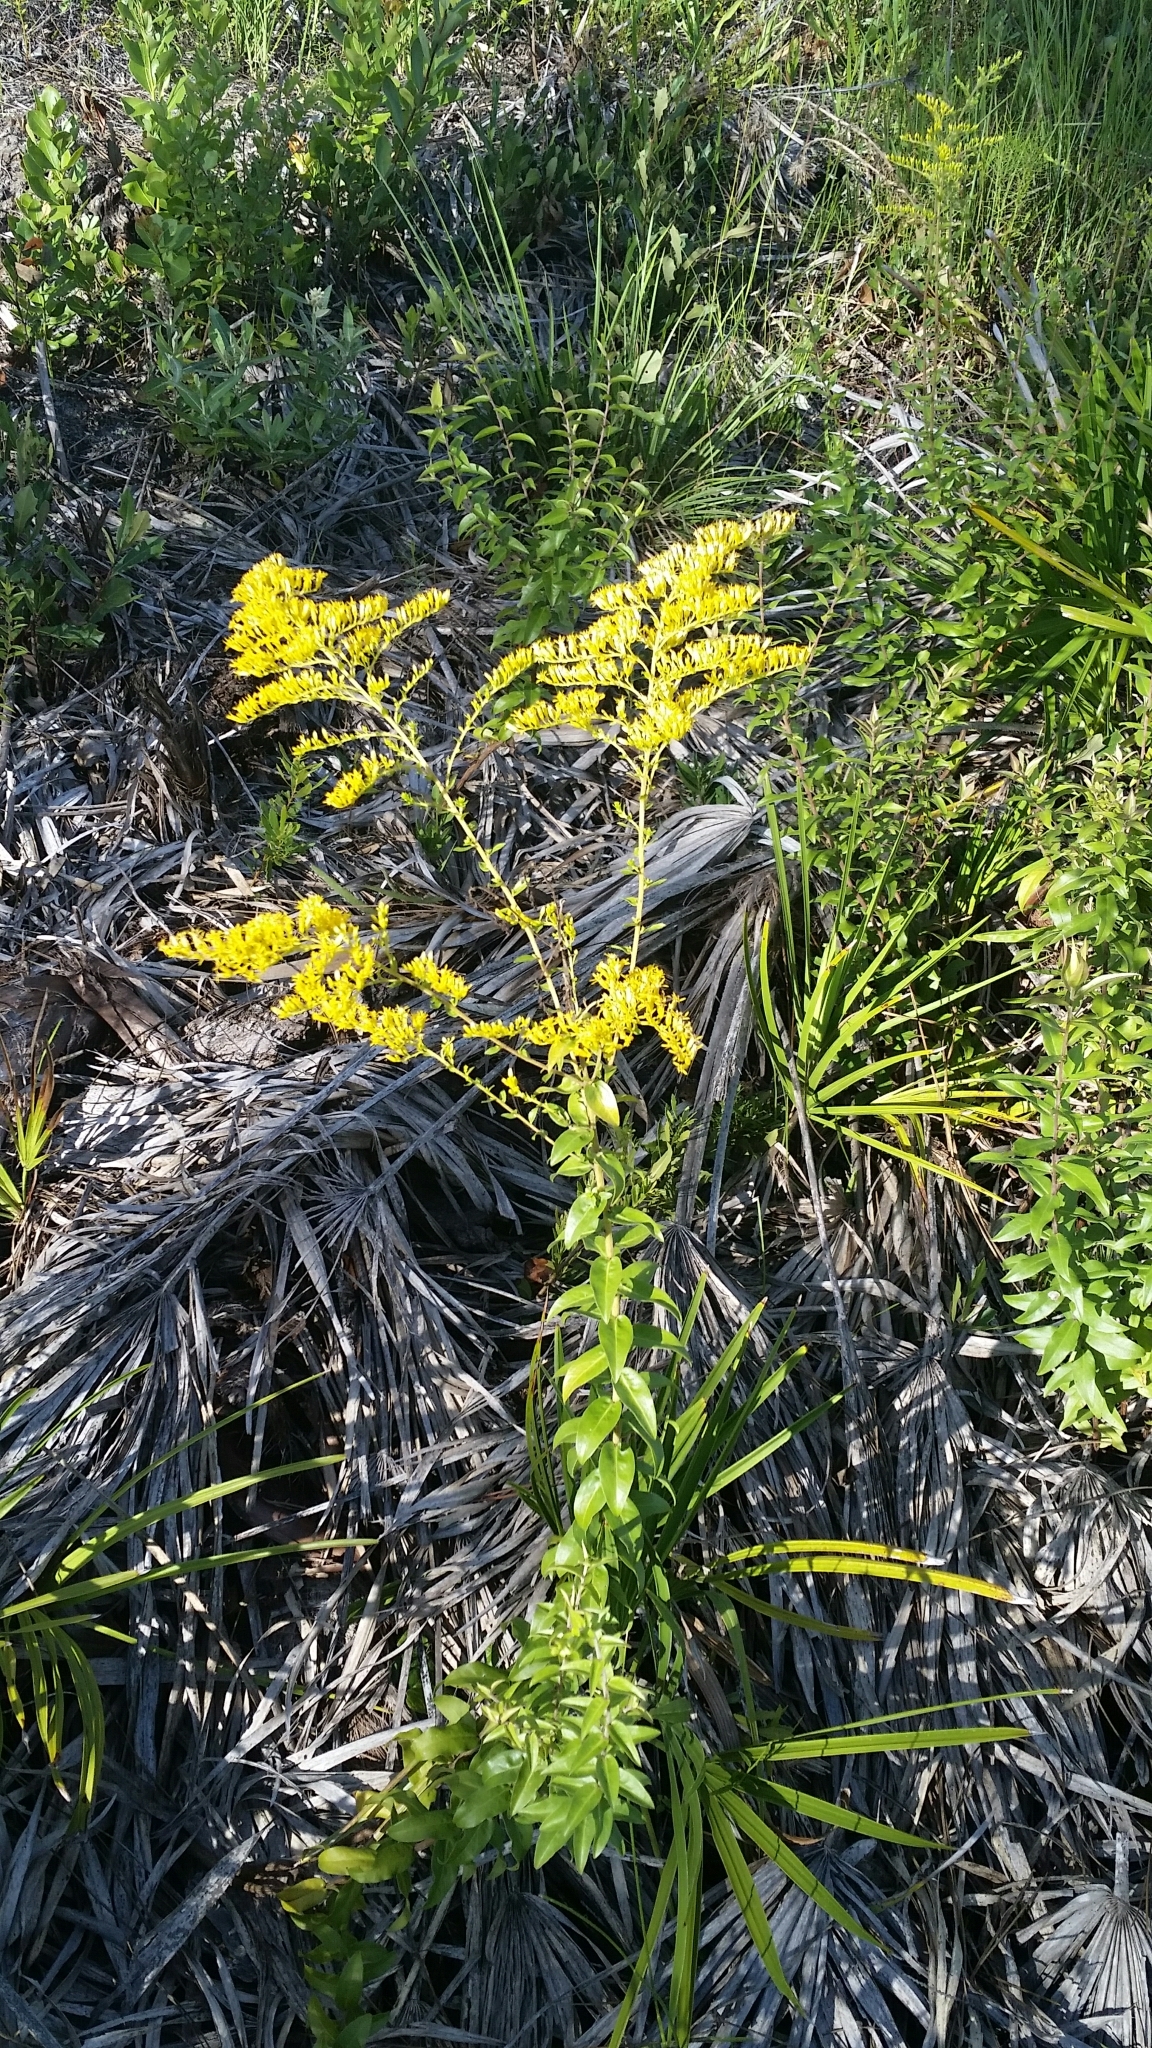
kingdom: Plantae
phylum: Tracheophyta
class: Magnoliopsida
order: Asterales
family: Asteraceae
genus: Solidago
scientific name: Solidago chapmanii
